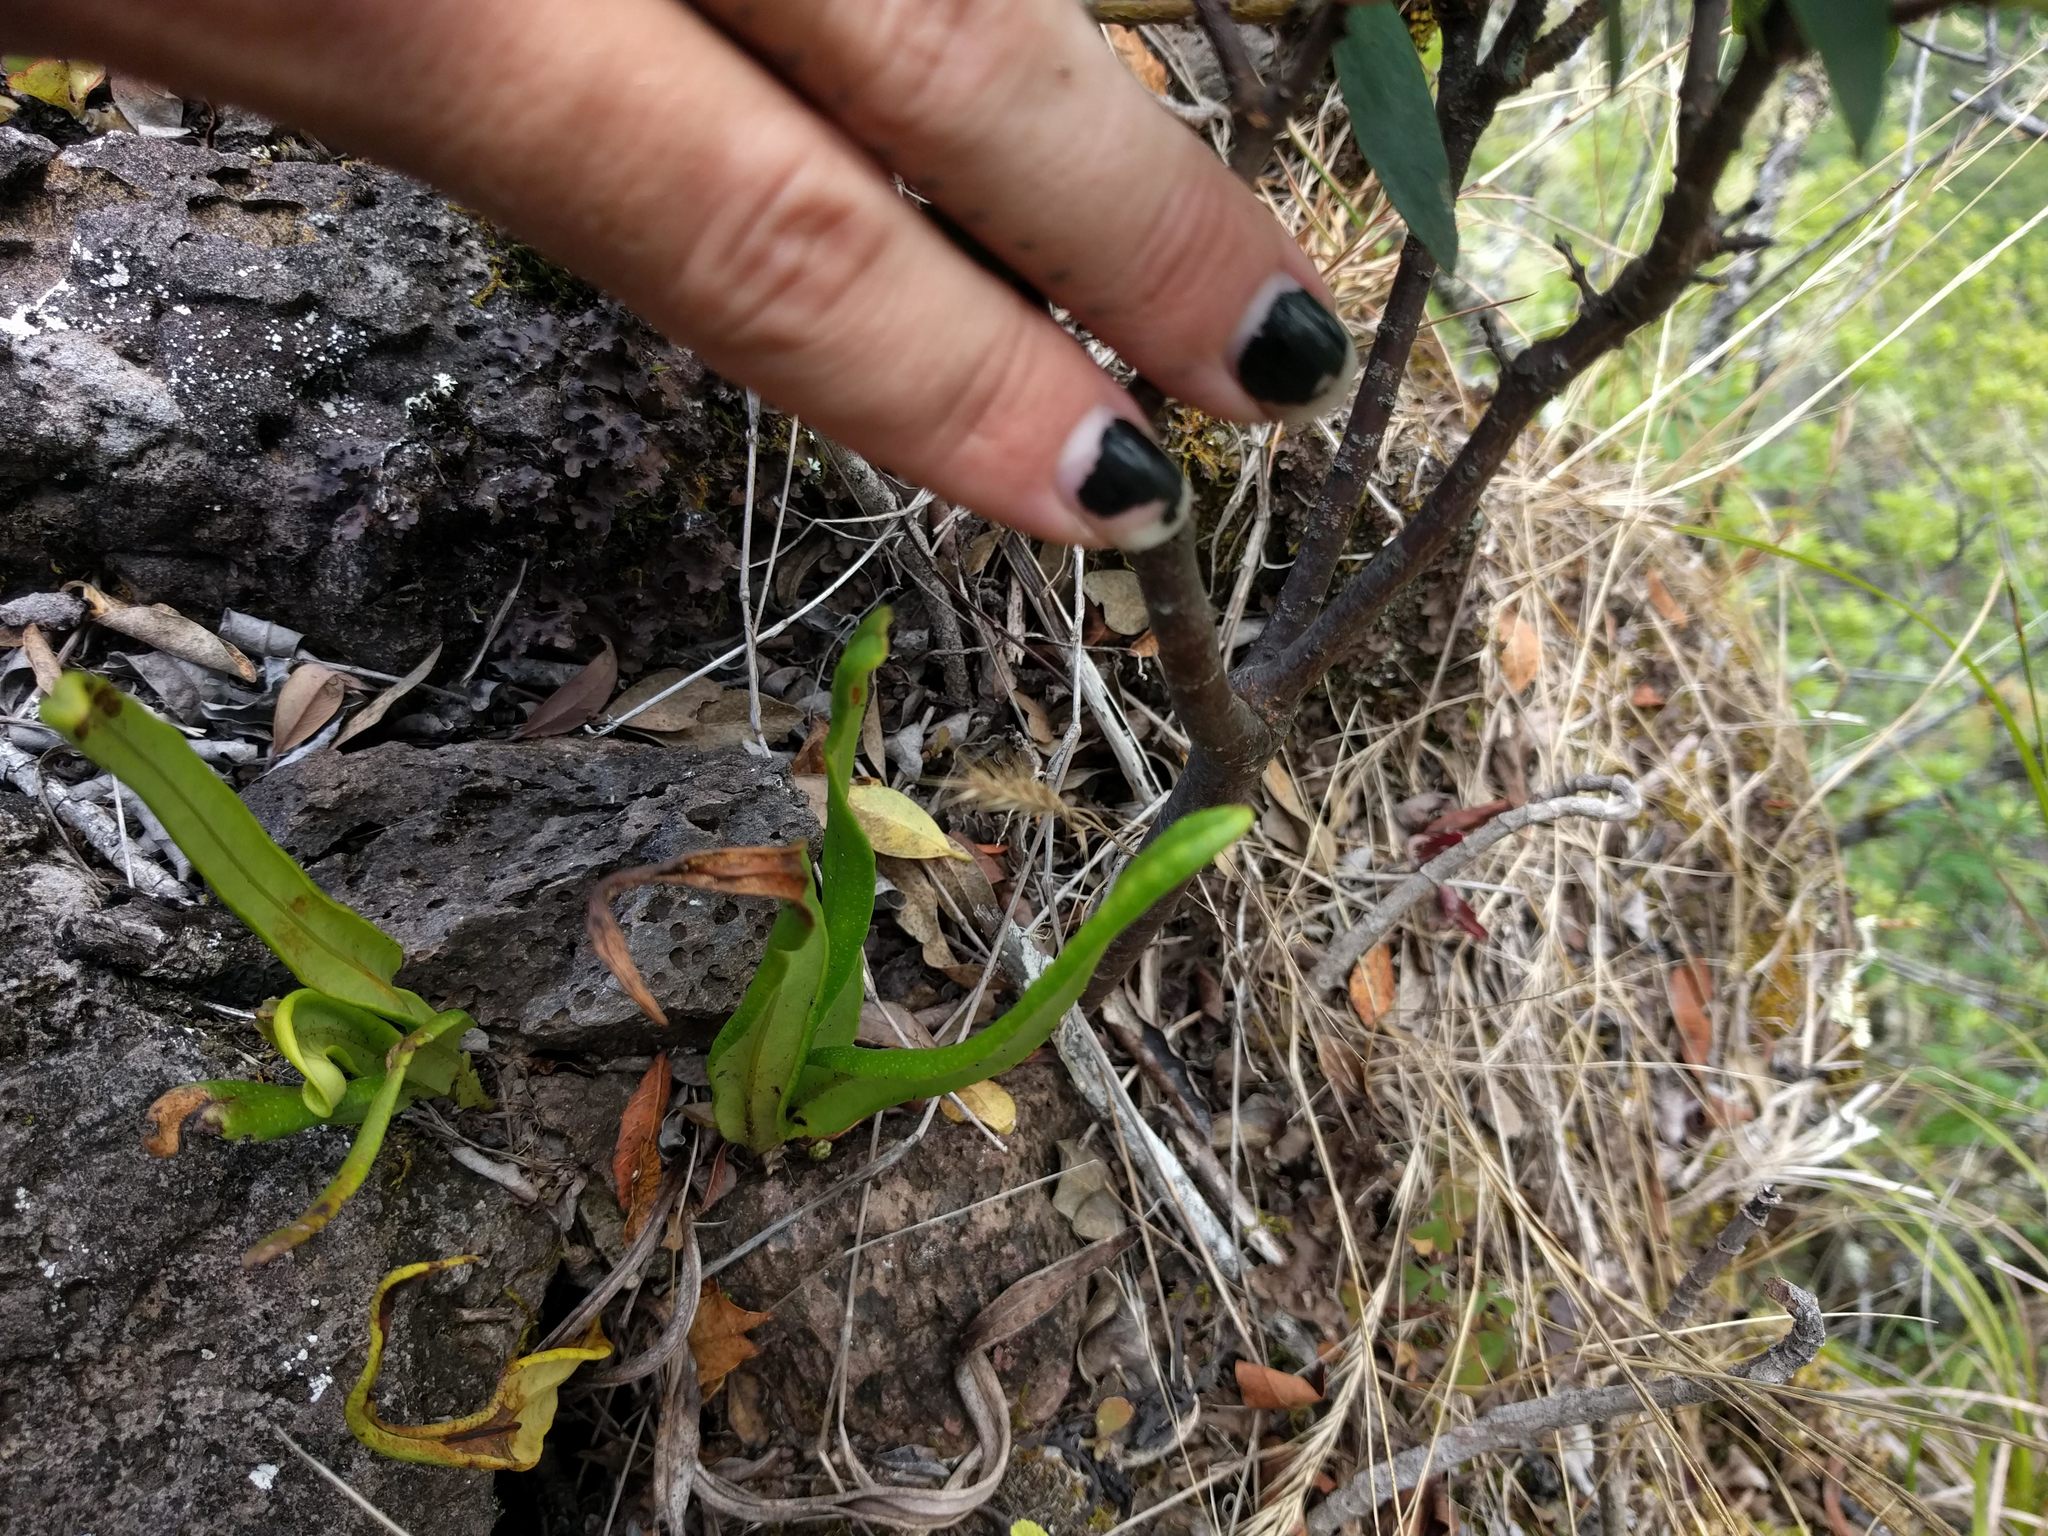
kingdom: Plantae
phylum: Tracheophyta
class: Polypodiopsida
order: Polypodiales
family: Polypodiaceae
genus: Lepisorus
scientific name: Lepisorus thunbergianus
